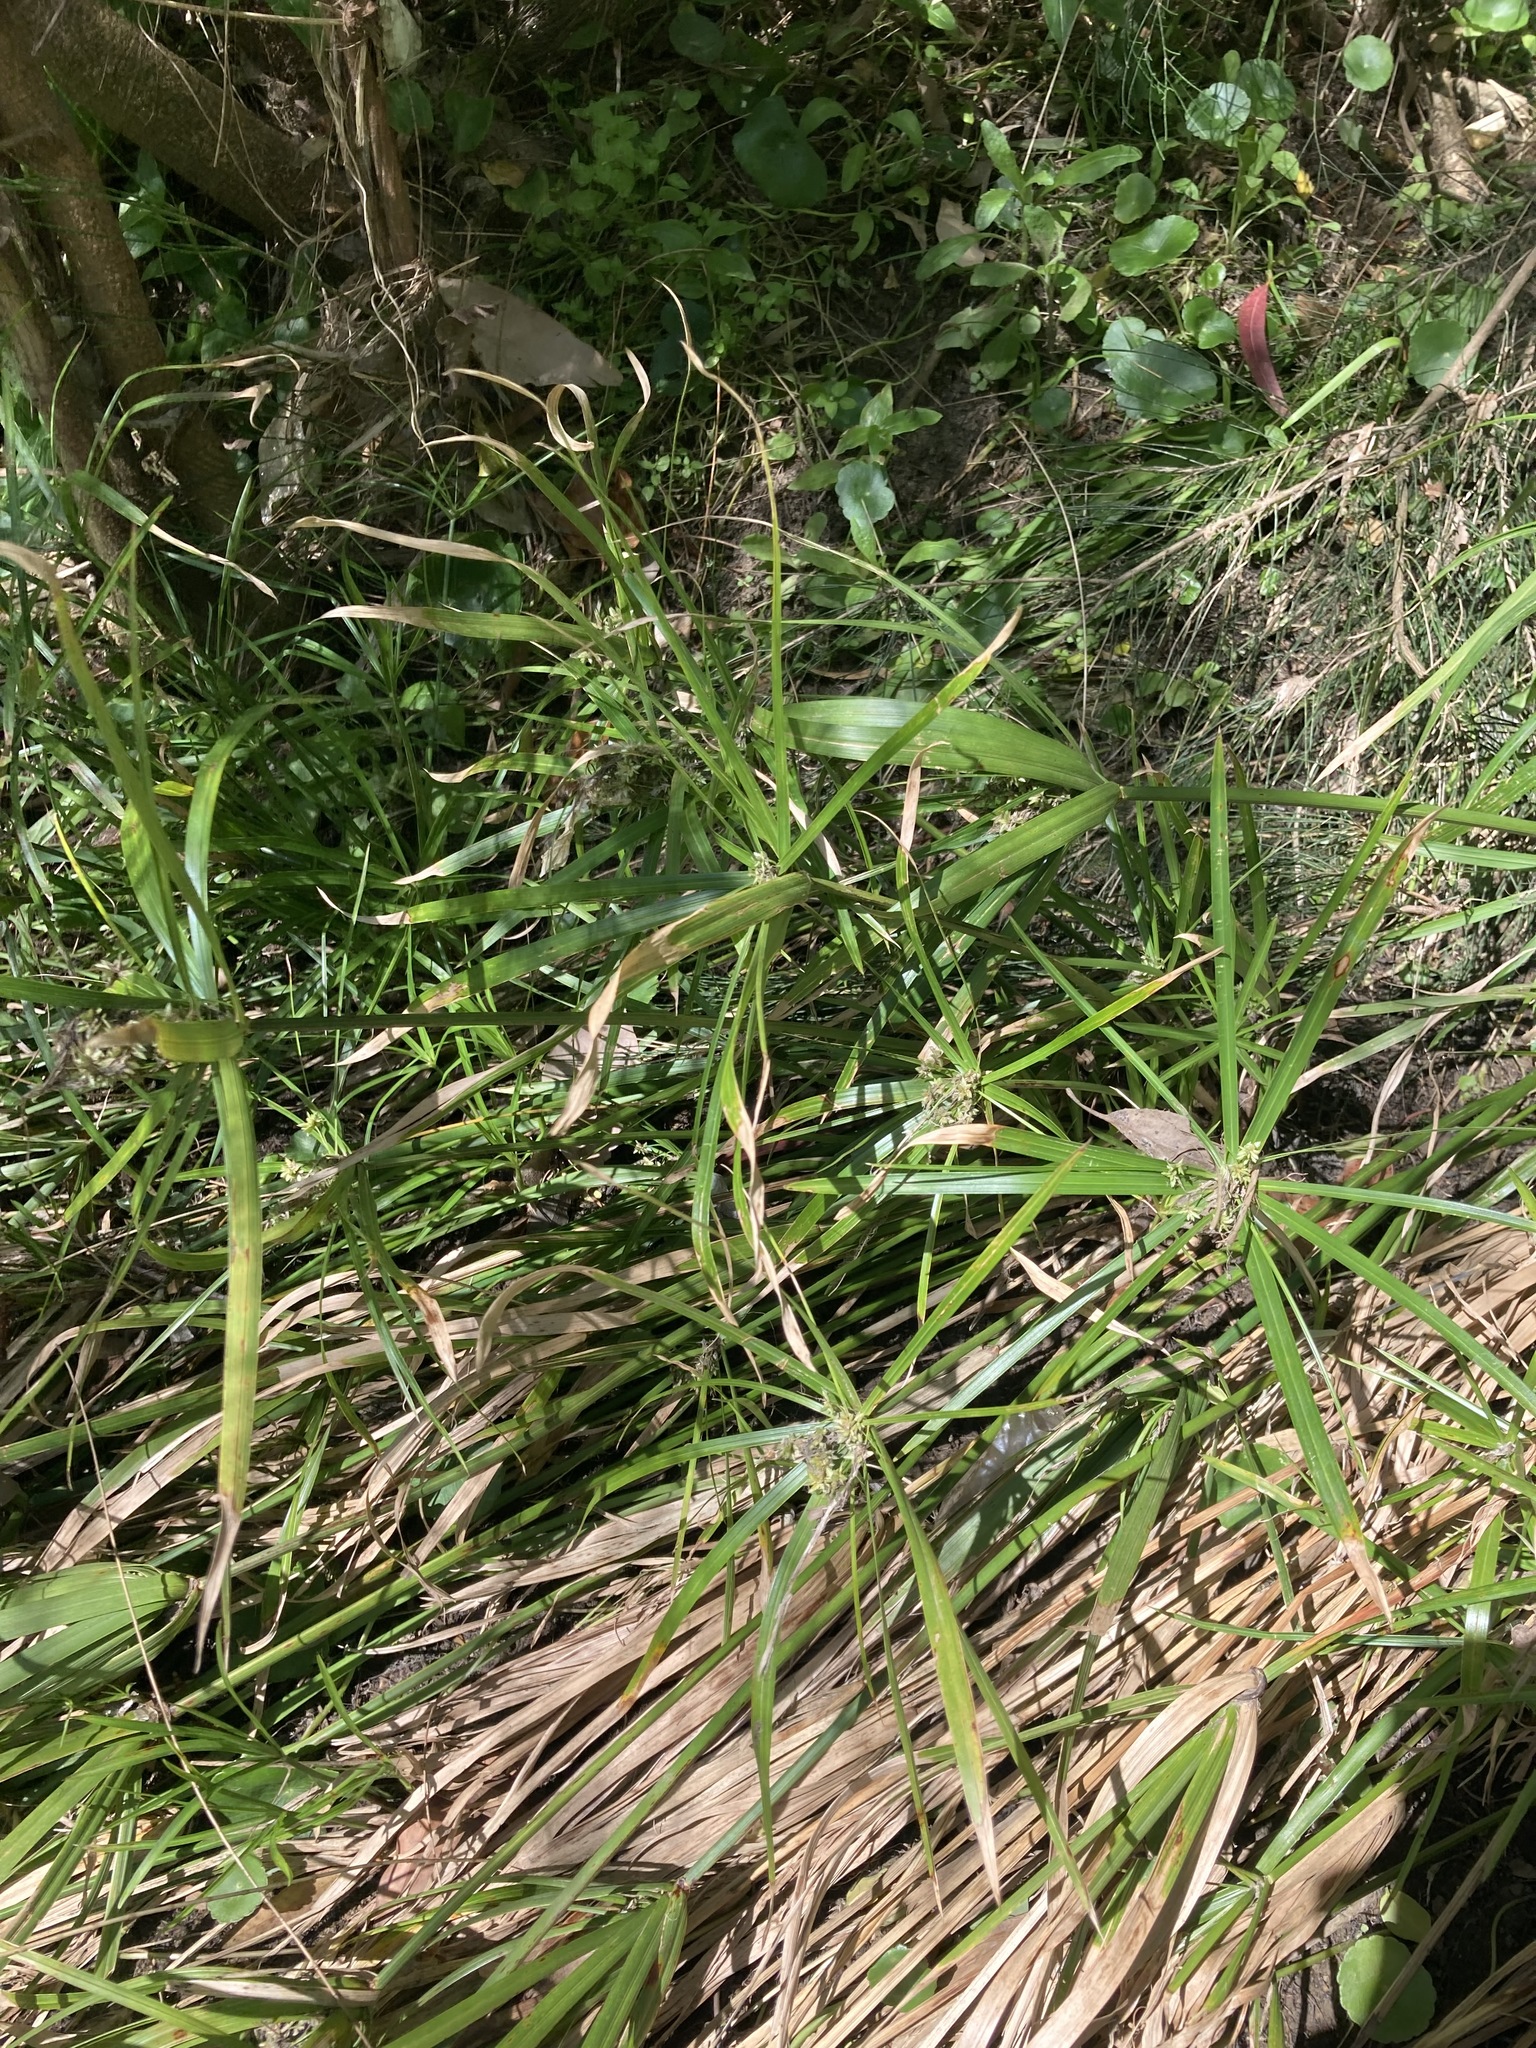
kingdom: Plantae
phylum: Tracheophyta
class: Liliopsida
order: Poales
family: Cyperaceae
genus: Cyperus
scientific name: Cyperus alternifolius
